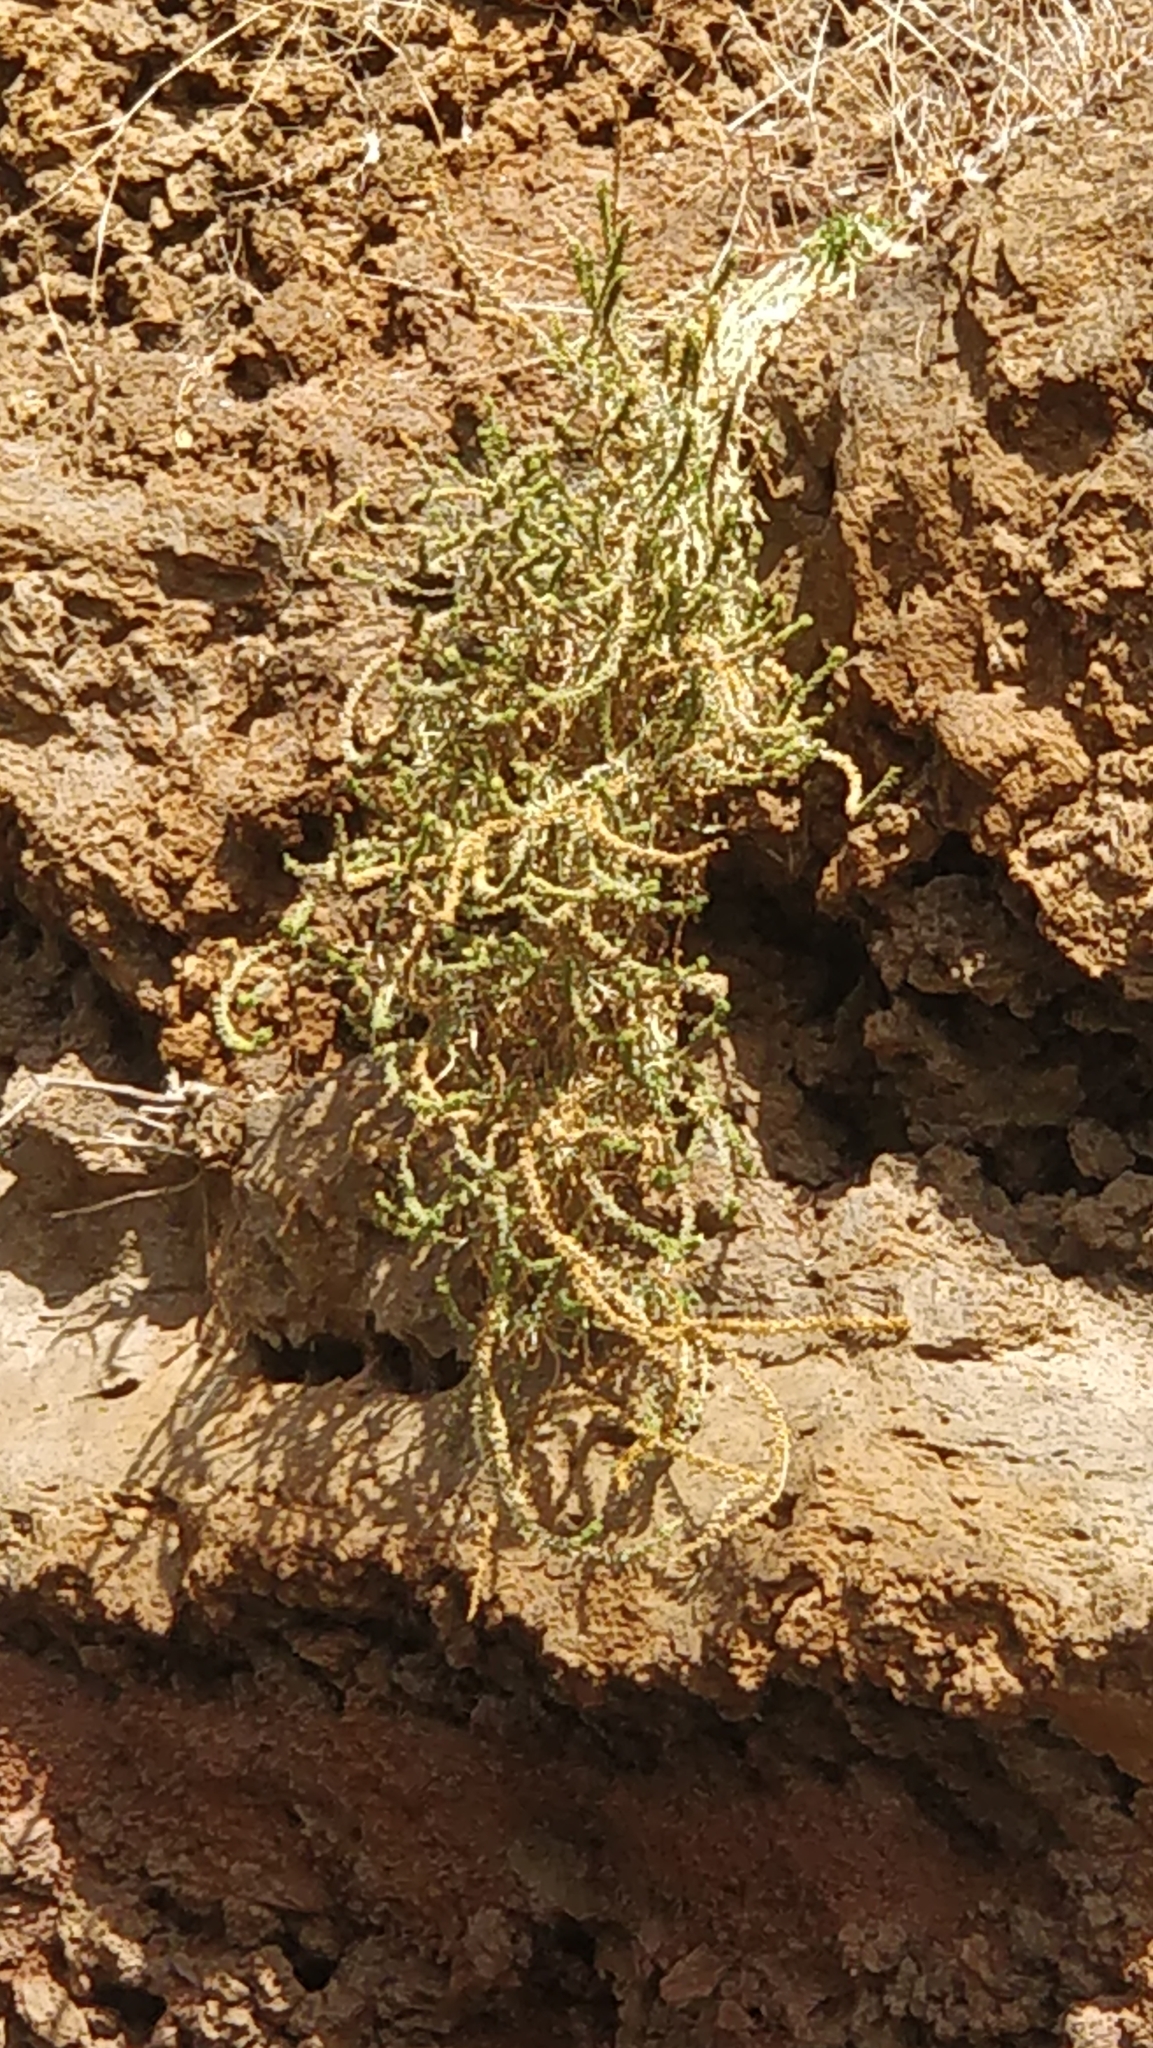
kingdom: Plantae
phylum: Tracheophyta
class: Magnoliopsida
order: Brassicales
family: Resedaceae
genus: Reseda
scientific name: Reseda luteola
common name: Weld
